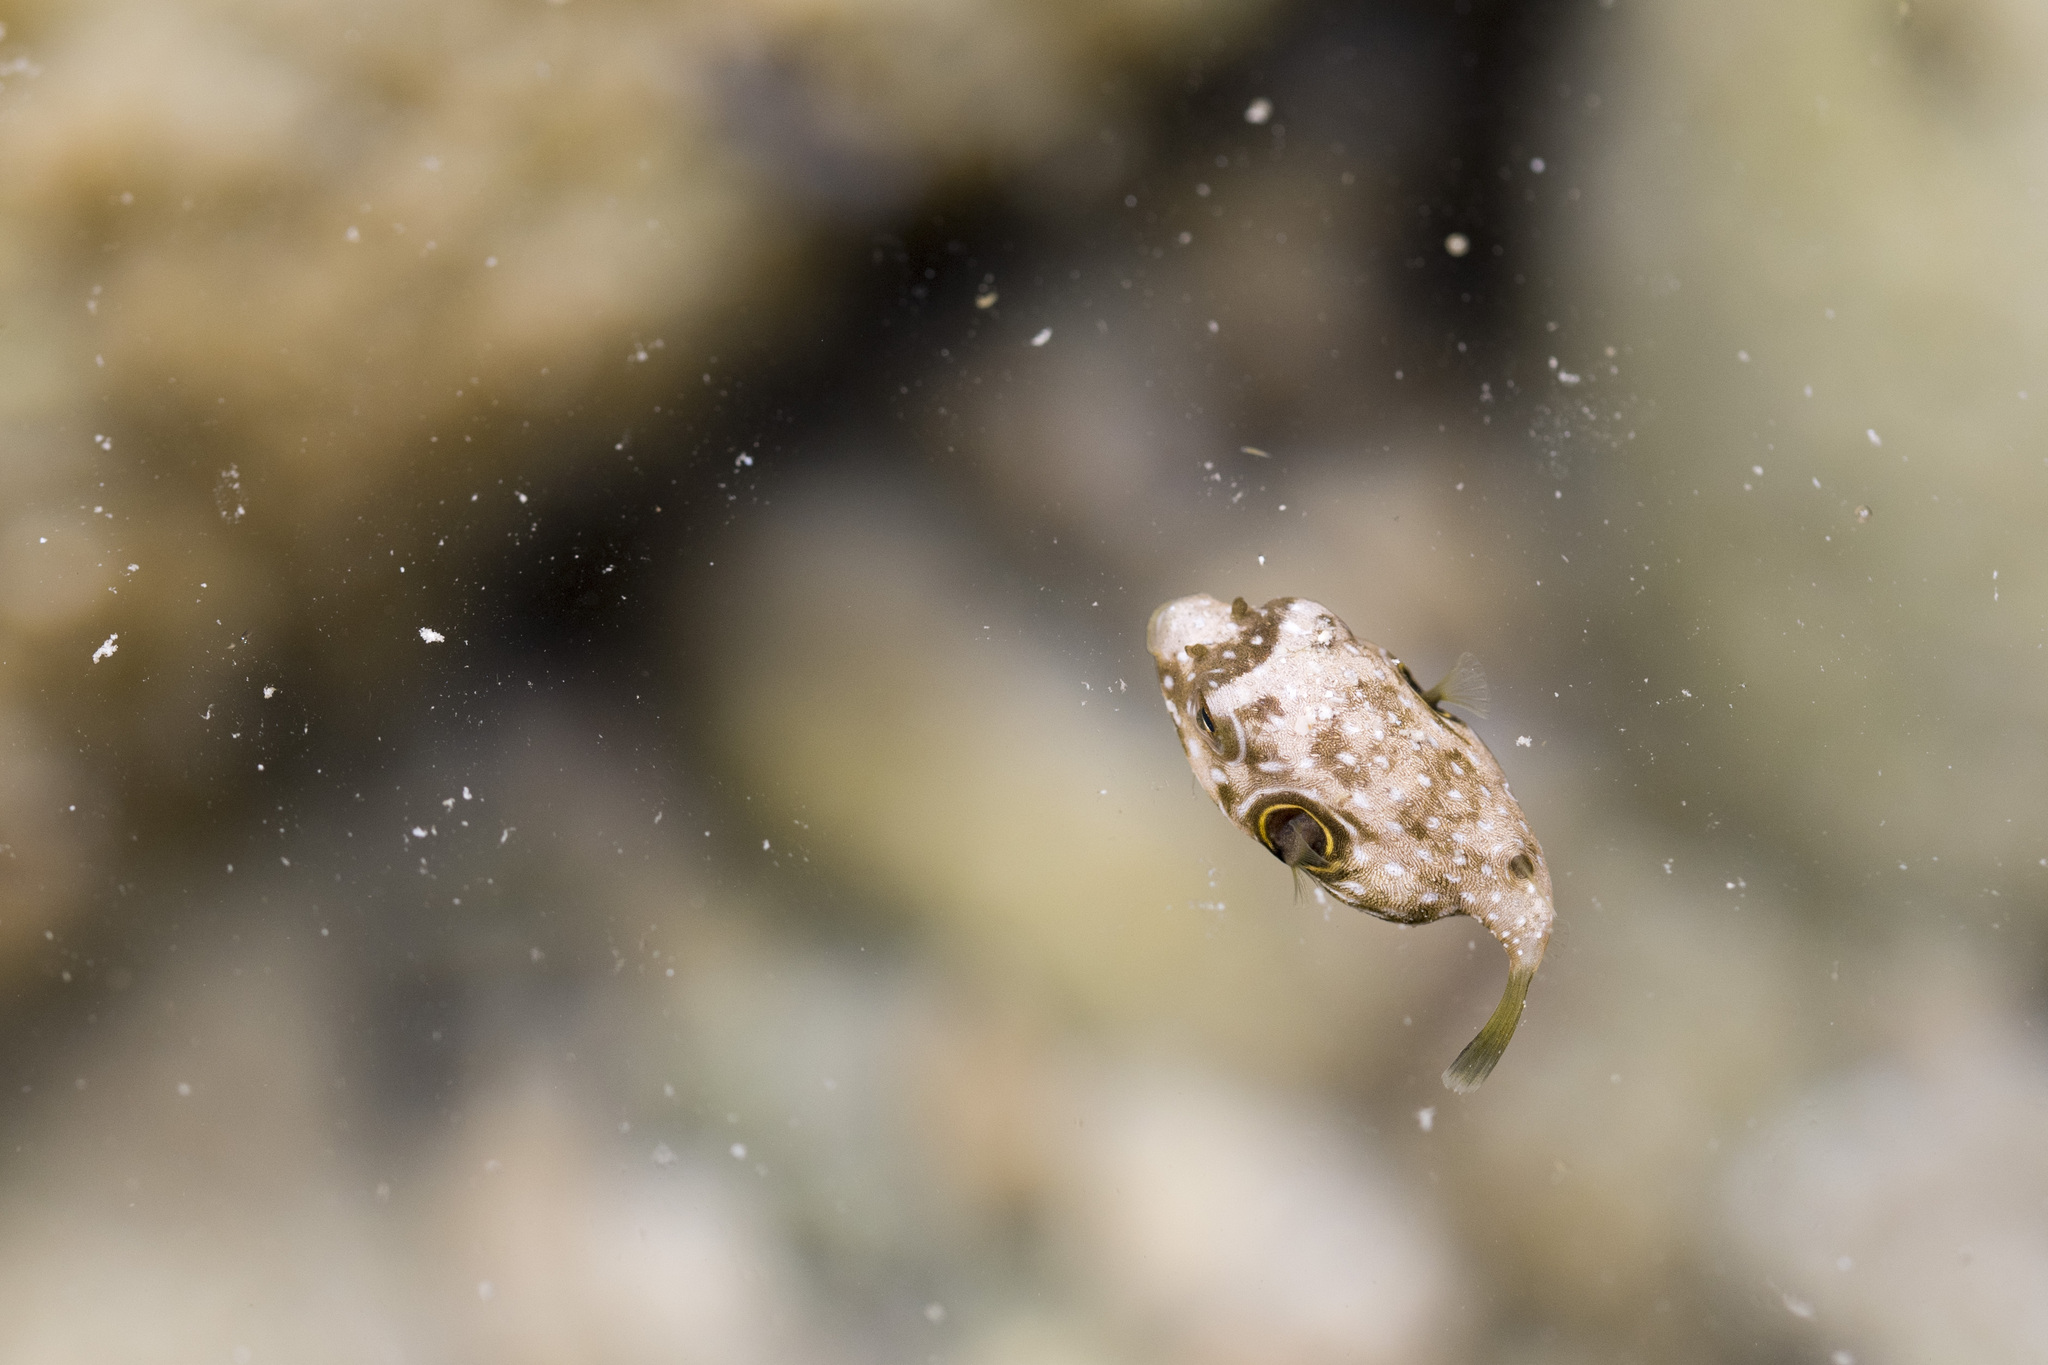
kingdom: Animalia
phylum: Chordata
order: Tetraodontiformes
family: Tetraodontidae
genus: Arothron
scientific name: Arothron hispidus
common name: Stripebelly puffer
